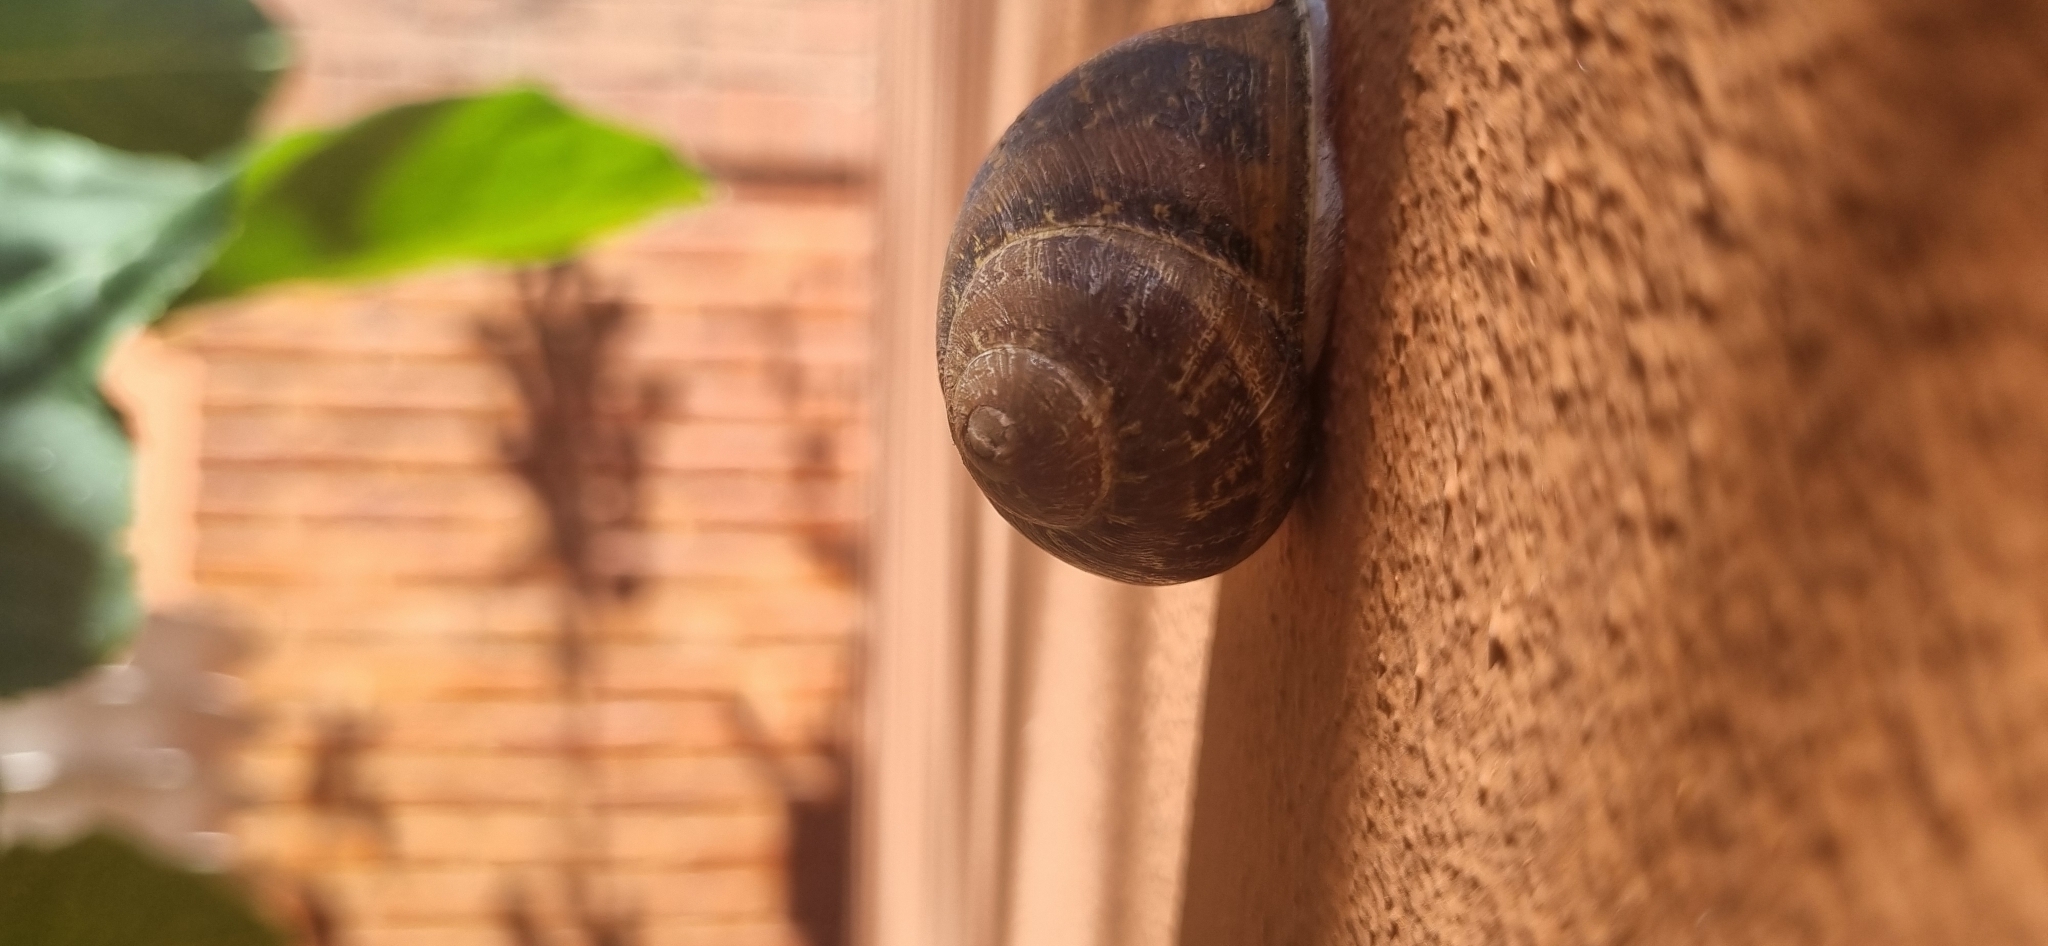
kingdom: Animalia
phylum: Mollusca
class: Gastropoda
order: Stylommatophora
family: Helicidae
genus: Cornu
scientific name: Cornu aspersum
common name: Brown garden snail
